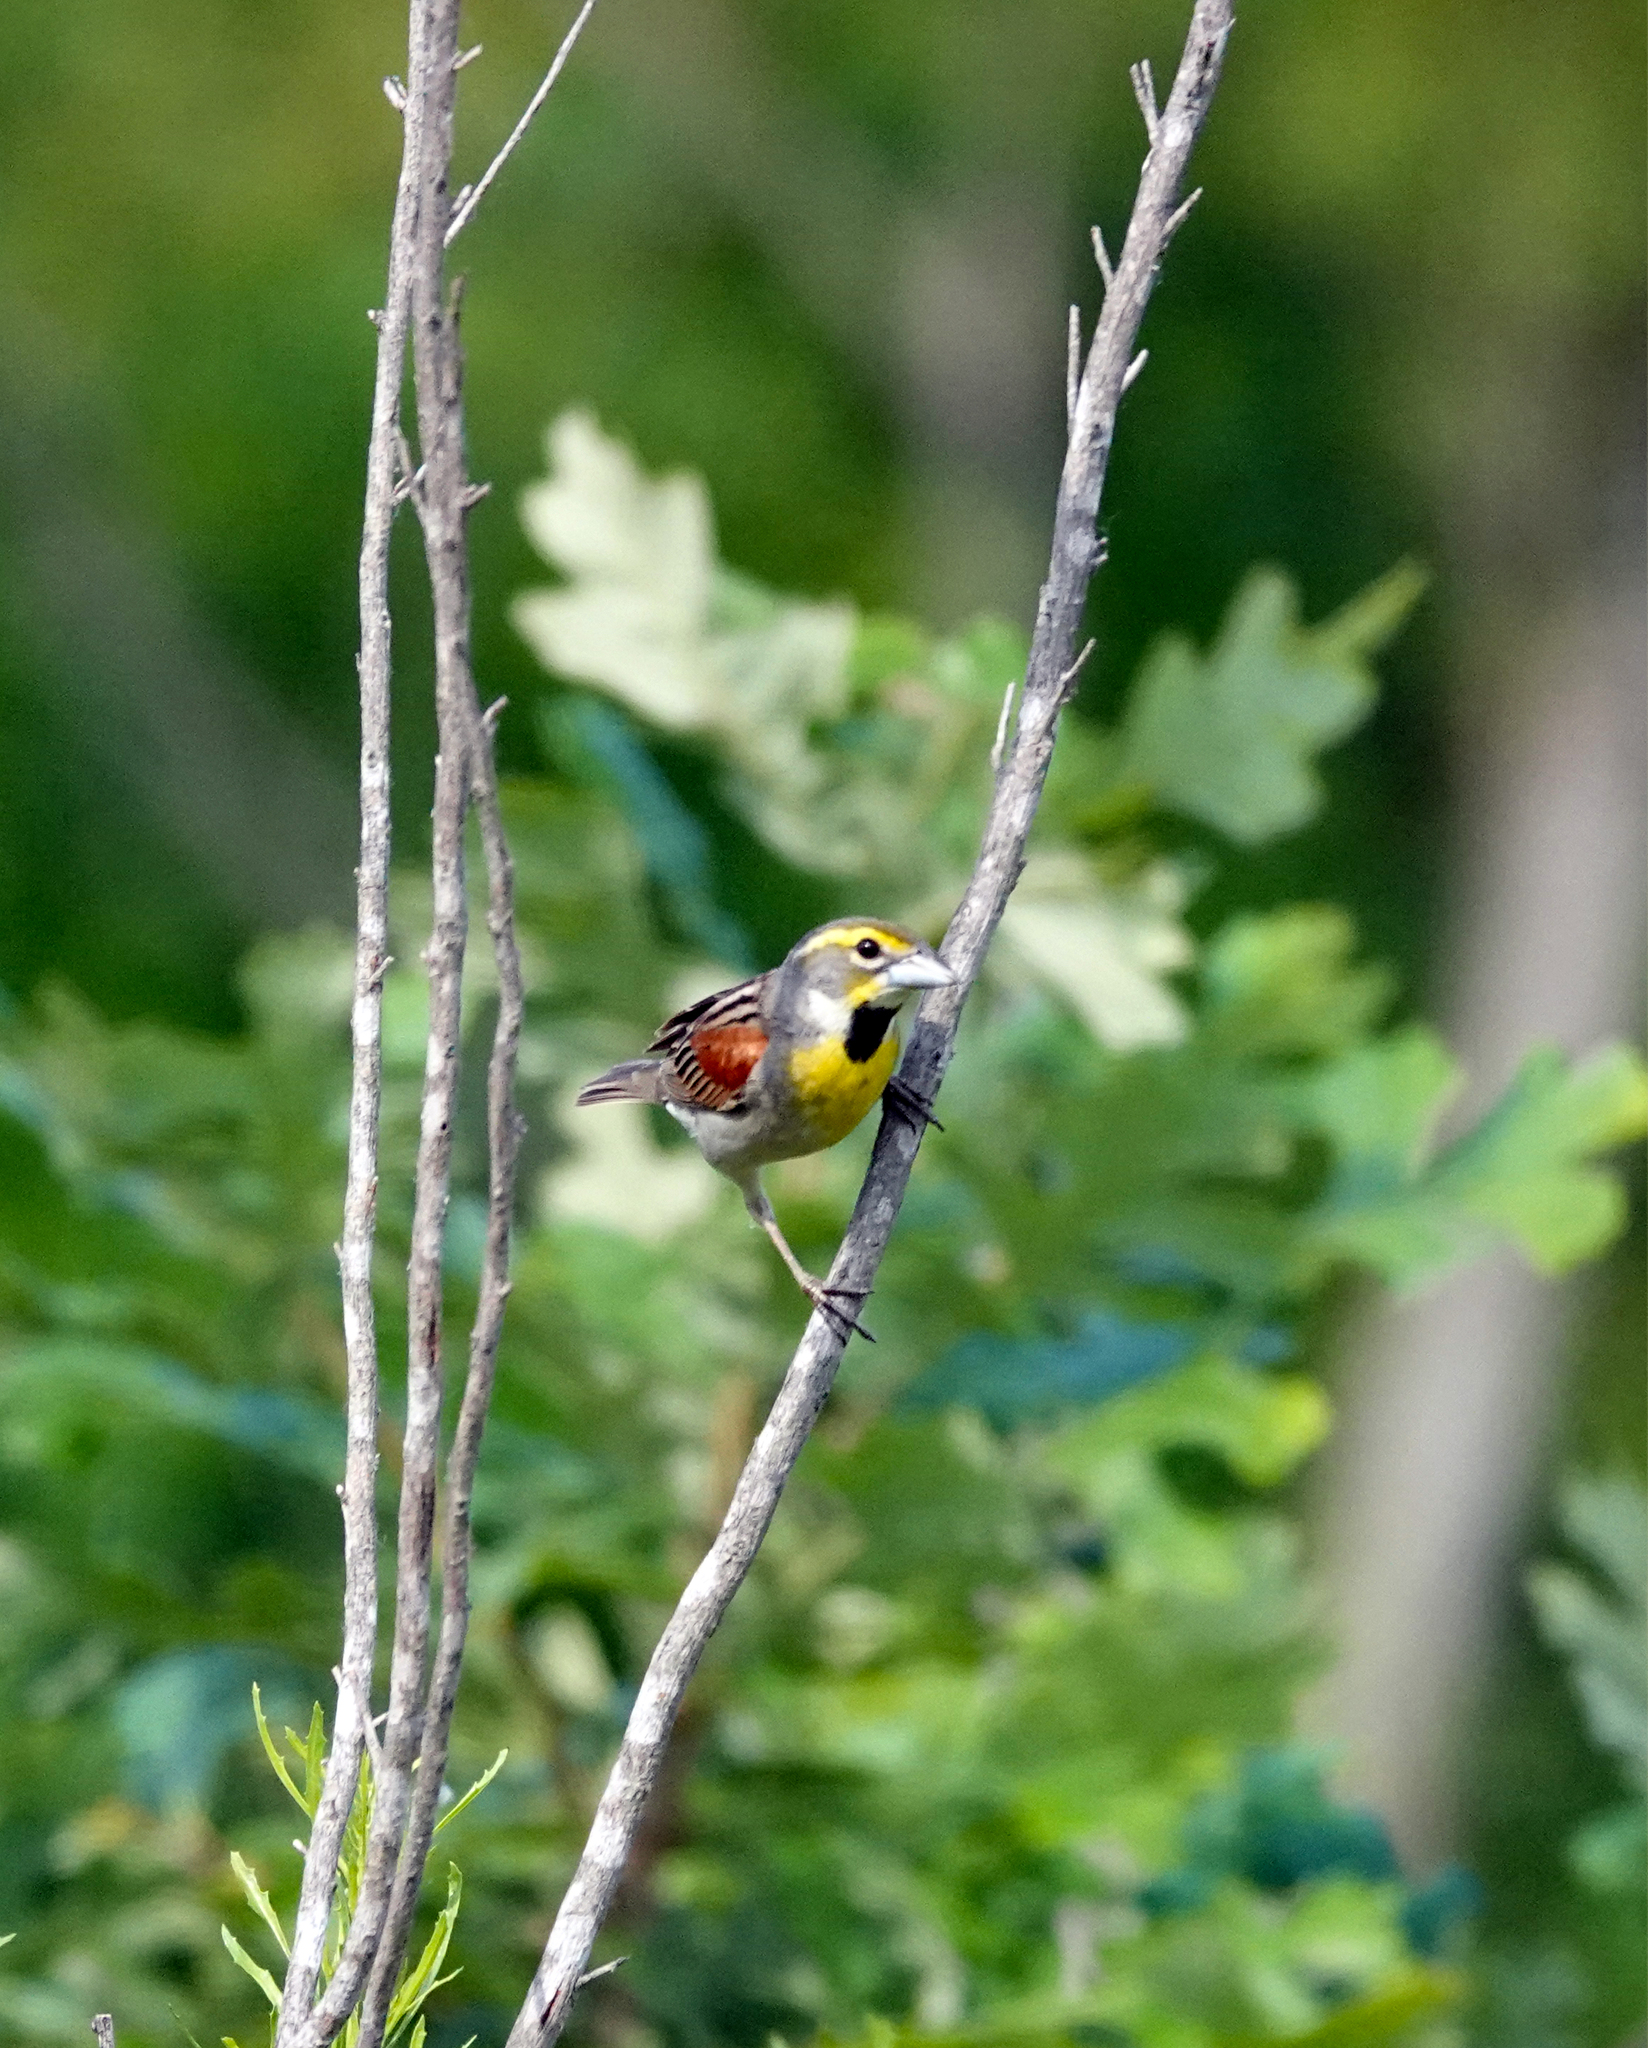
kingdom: Animalia
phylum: Chordata
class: Aves
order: Passeriformes
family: Cardinalidae
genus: Spiza
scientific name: Spiza americana
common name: Dickcissel
